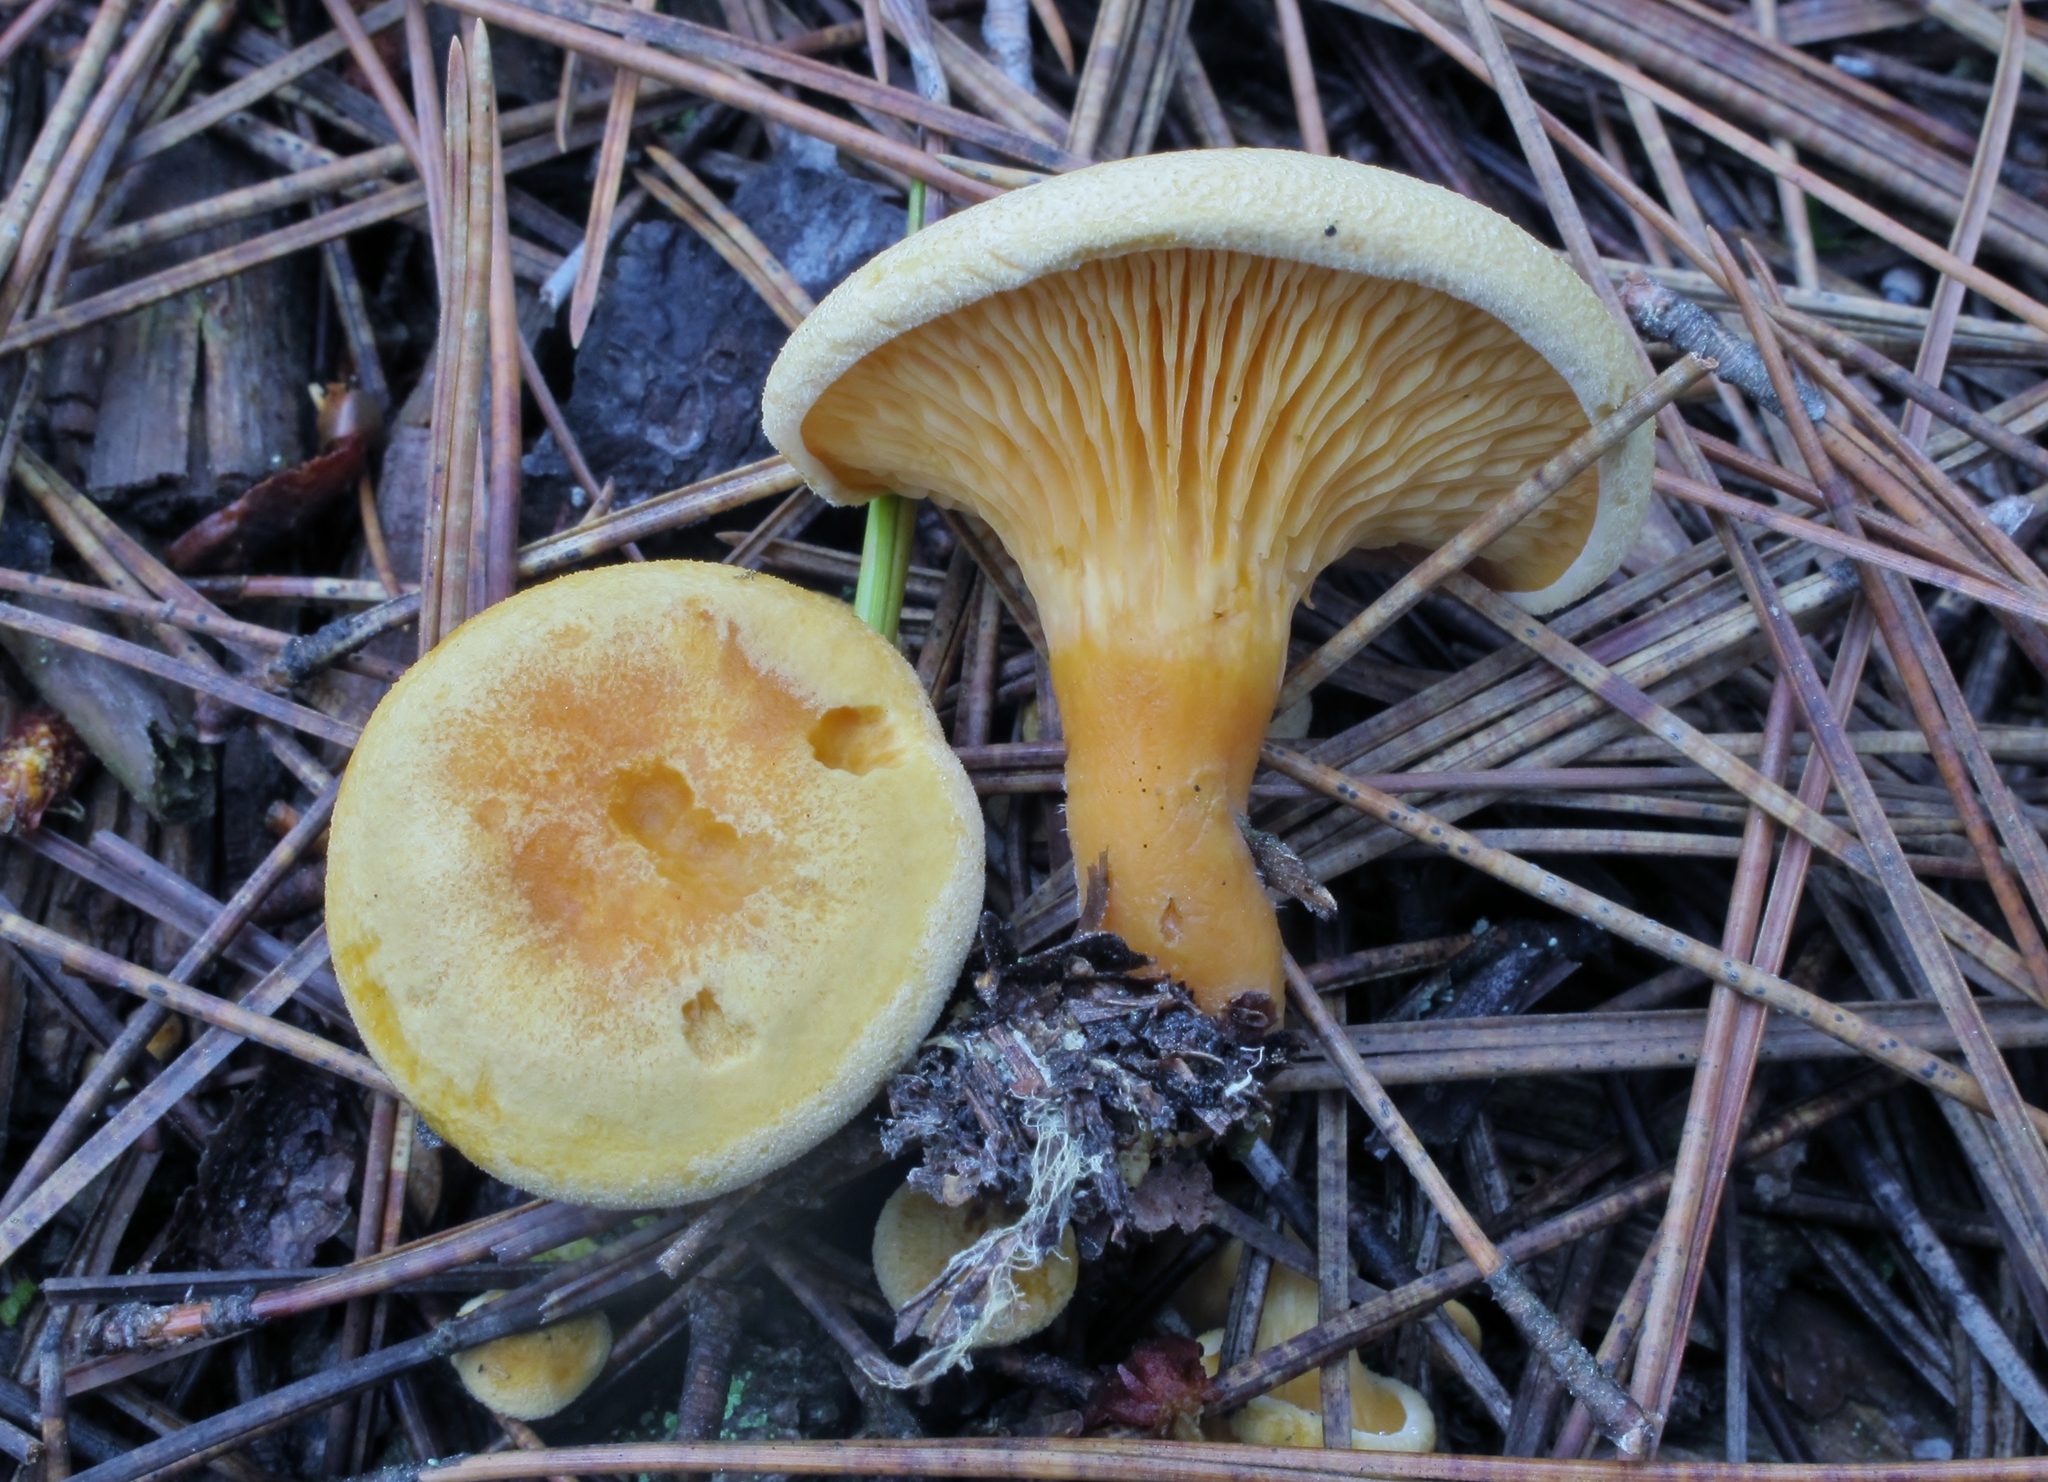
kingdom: Fungi
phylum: Basidiomycota
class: Agaricomycetes
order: Boletales
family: Hygrophoropsidaceae
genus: Hygrophoropsis
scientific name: Hygrophoropsis aurantiaca
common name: False chanterelle
